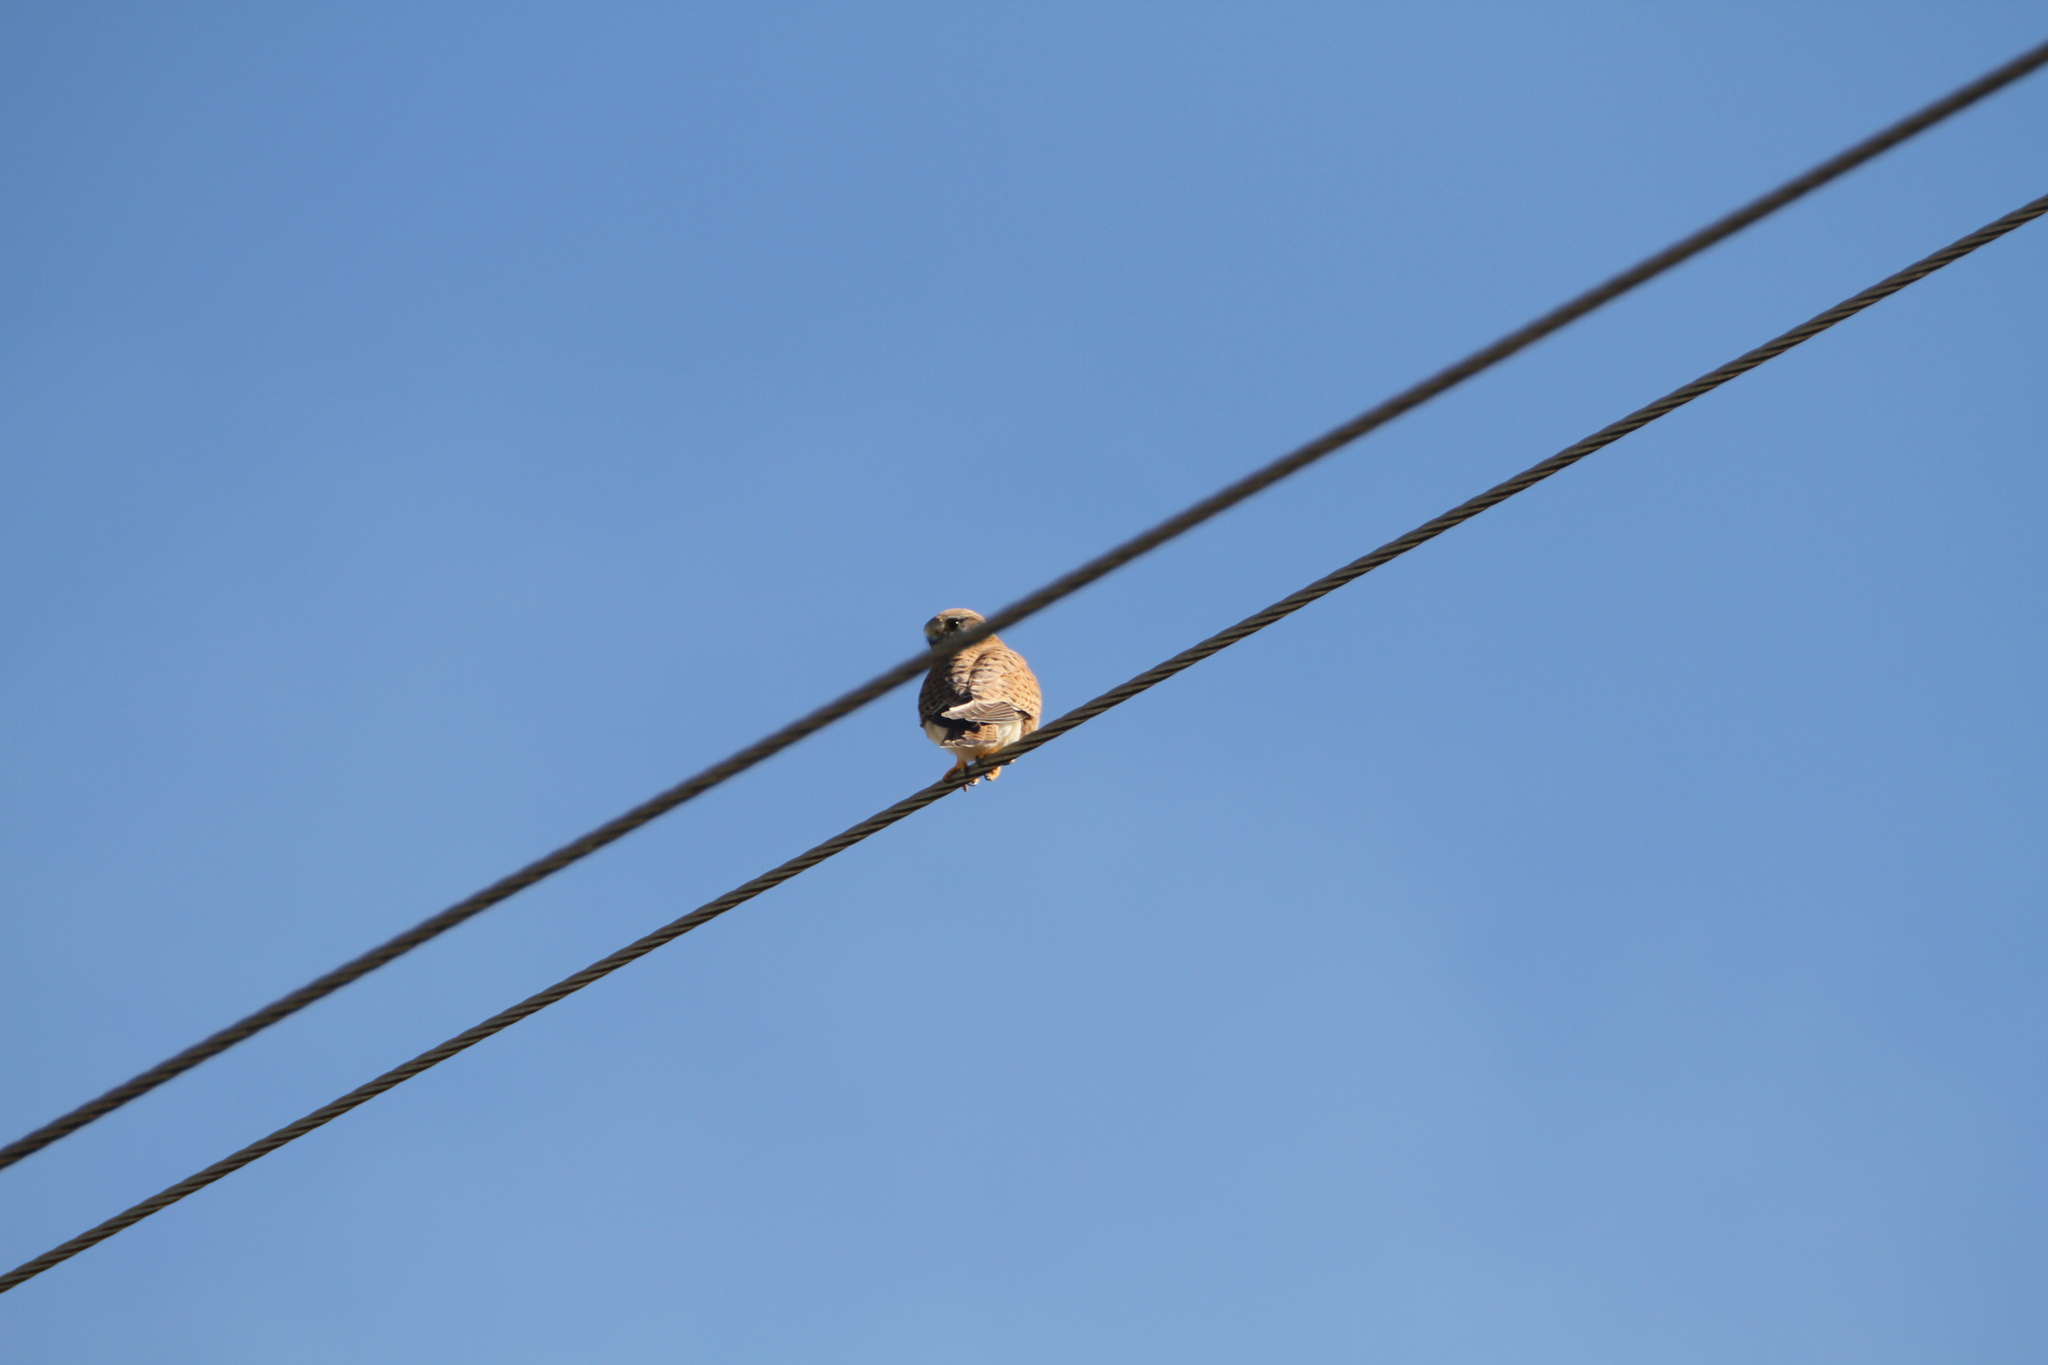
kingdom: Animalia
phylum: Chordata
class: Aves
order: Falconiformes
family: Falconidae
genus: Falco
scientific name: Falco tinnunculus
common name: Common kestrel
